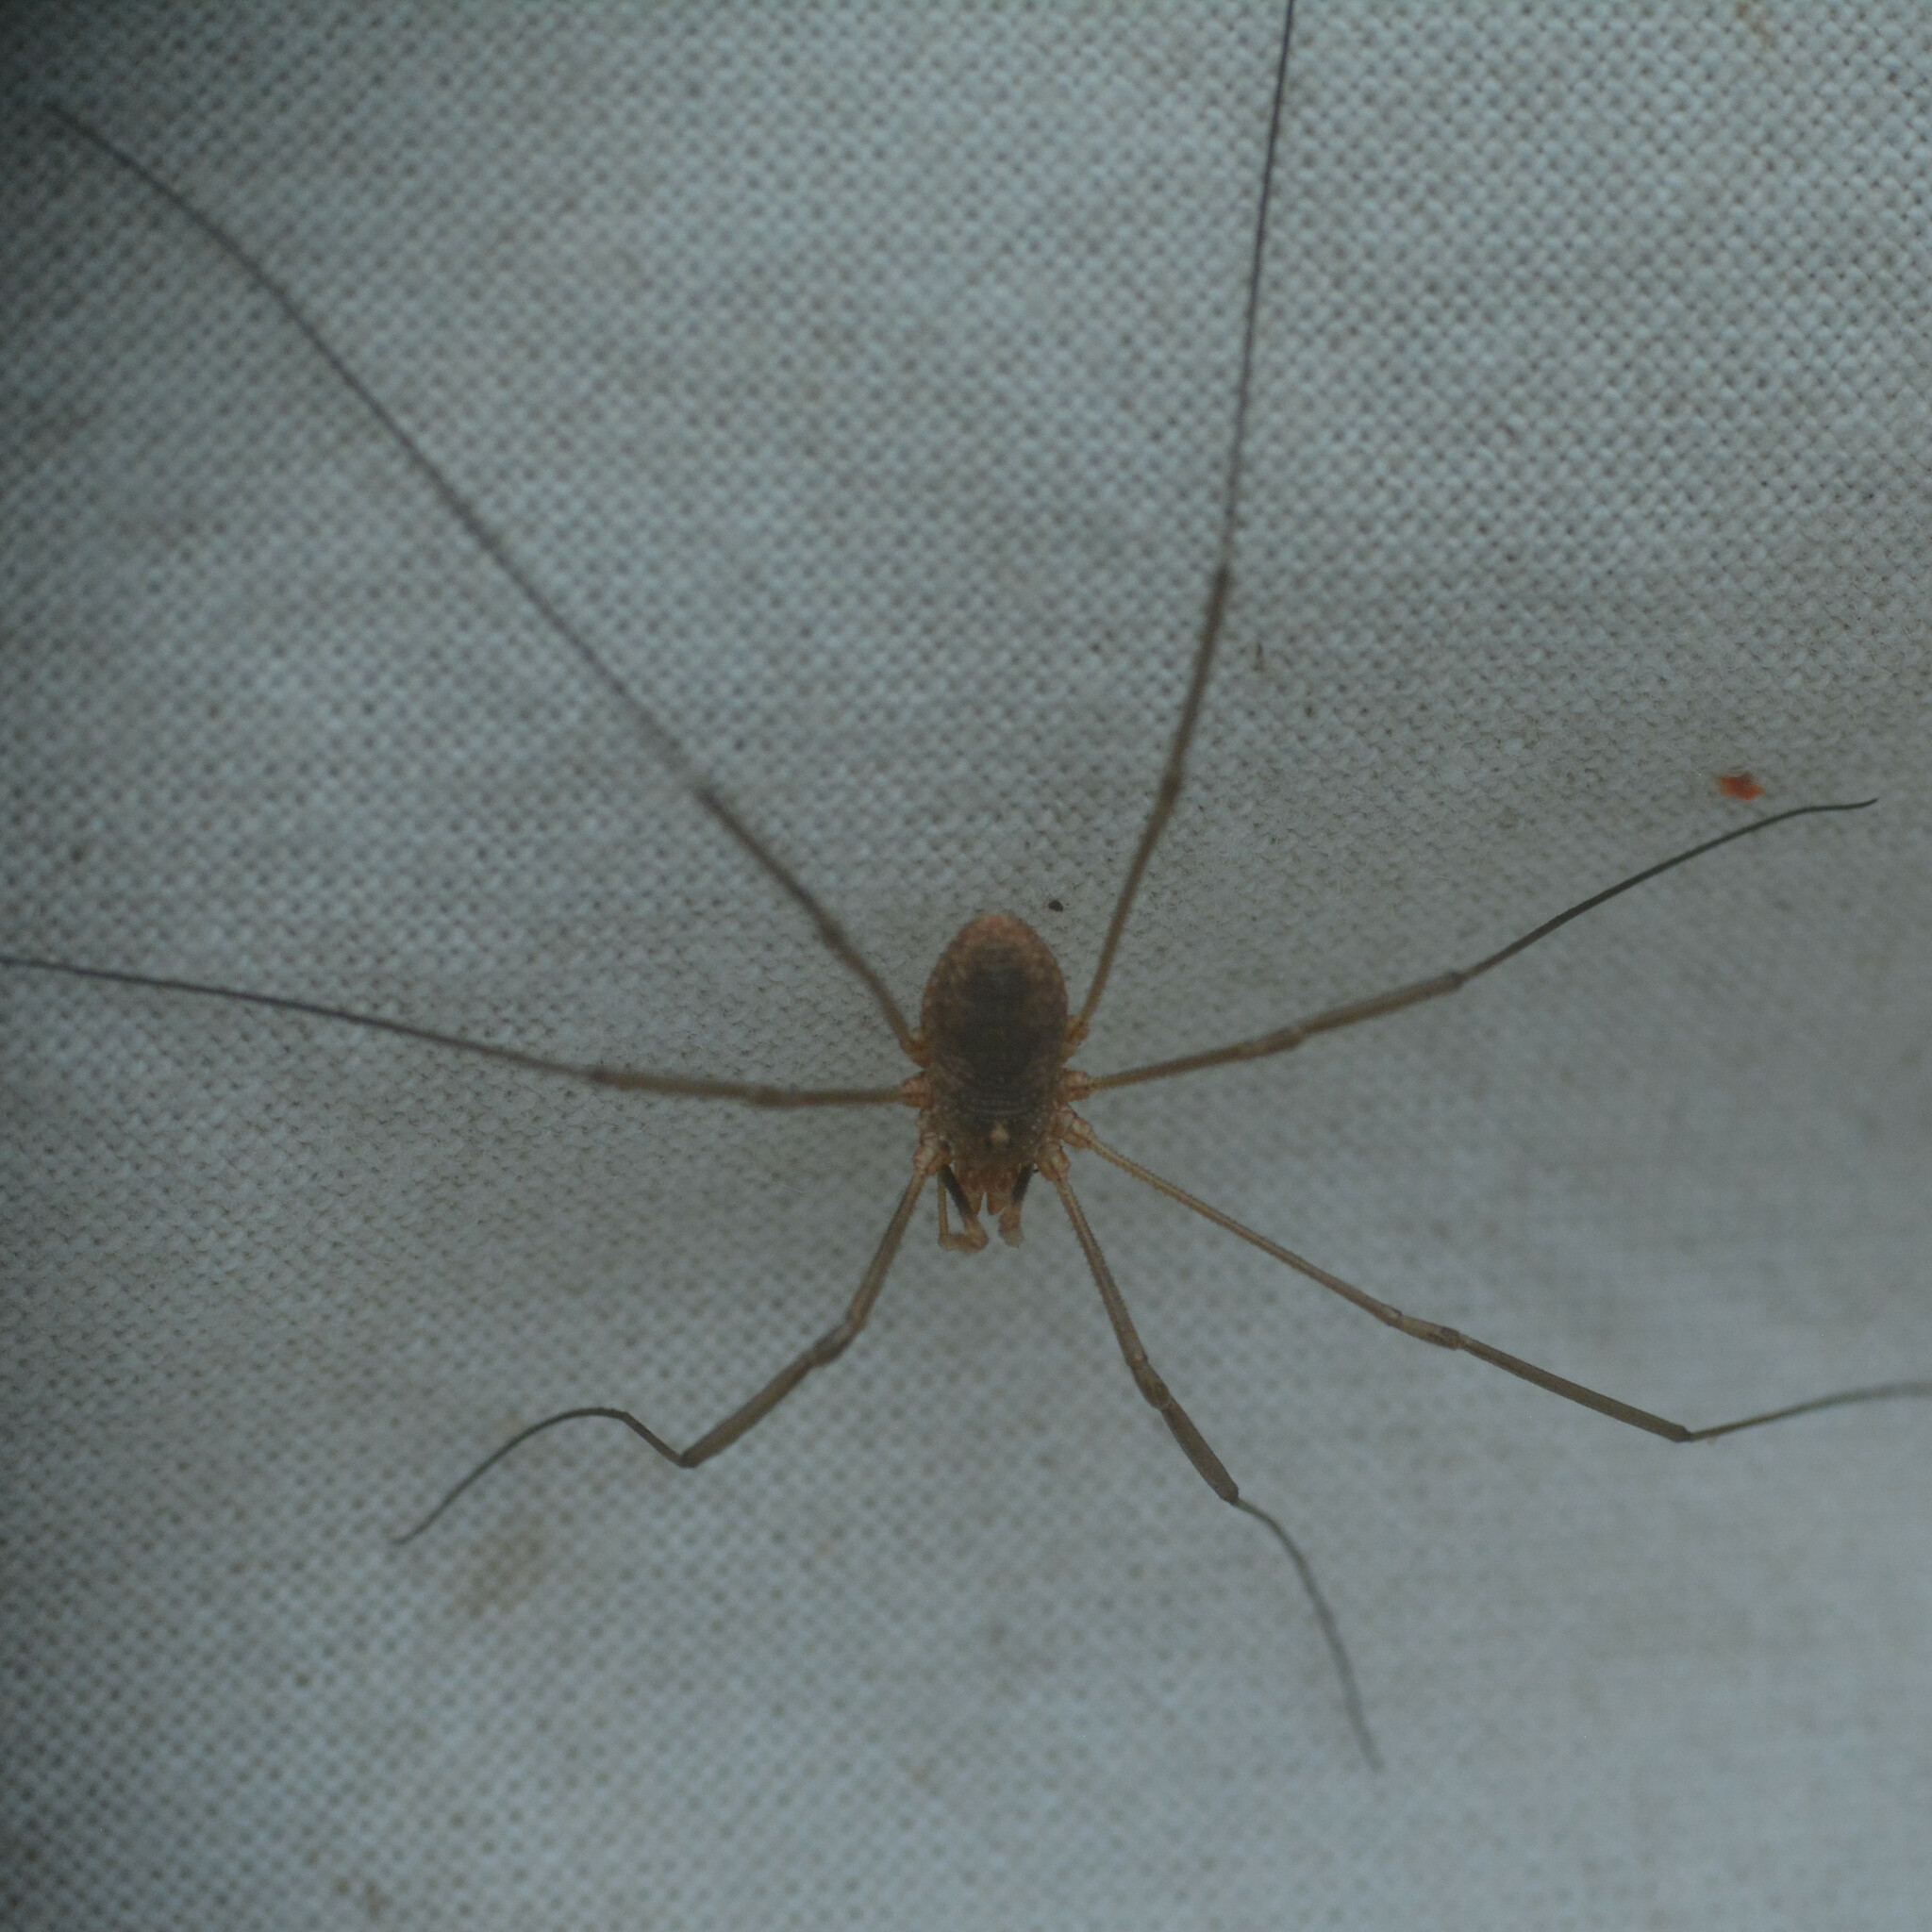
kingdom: Animalia
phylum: Arthropoda
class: Arachnida
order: Opiliones
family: Phalangiidae
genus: Phalangium
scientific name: Phalangium opilio
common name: Daddy longleg
